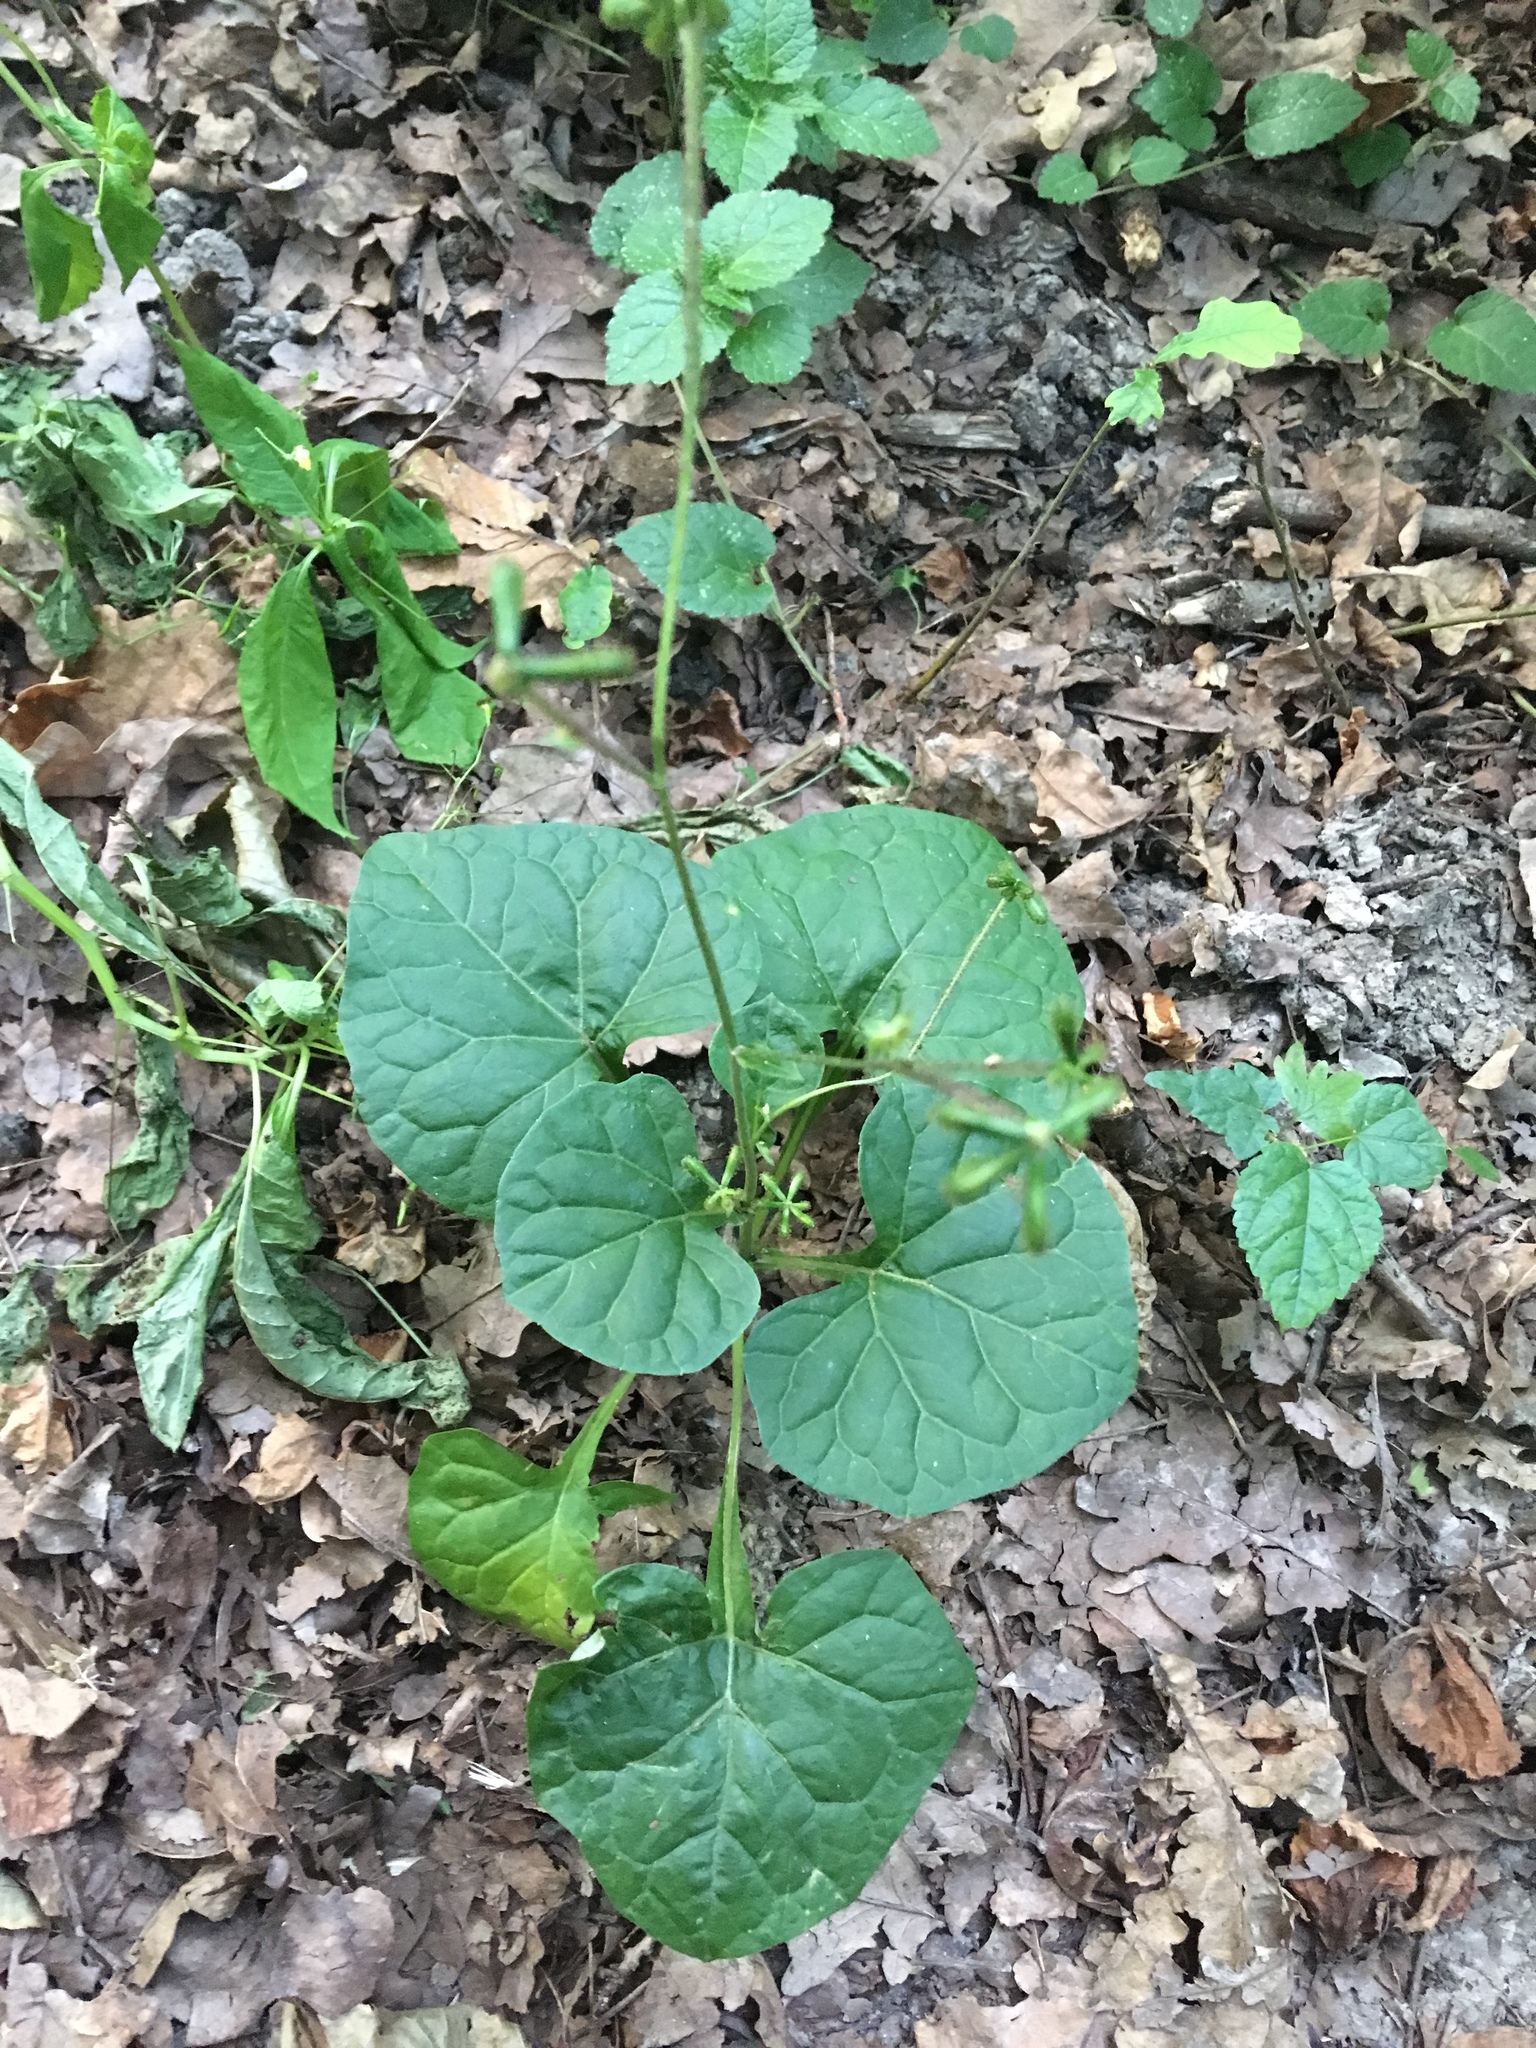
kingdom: Plantae
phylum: Tracheophyta
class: Magnoliopsida
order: Asterales
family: Asteraceae
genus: Adenocaulon
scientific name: Adenocaulon himalaicum
